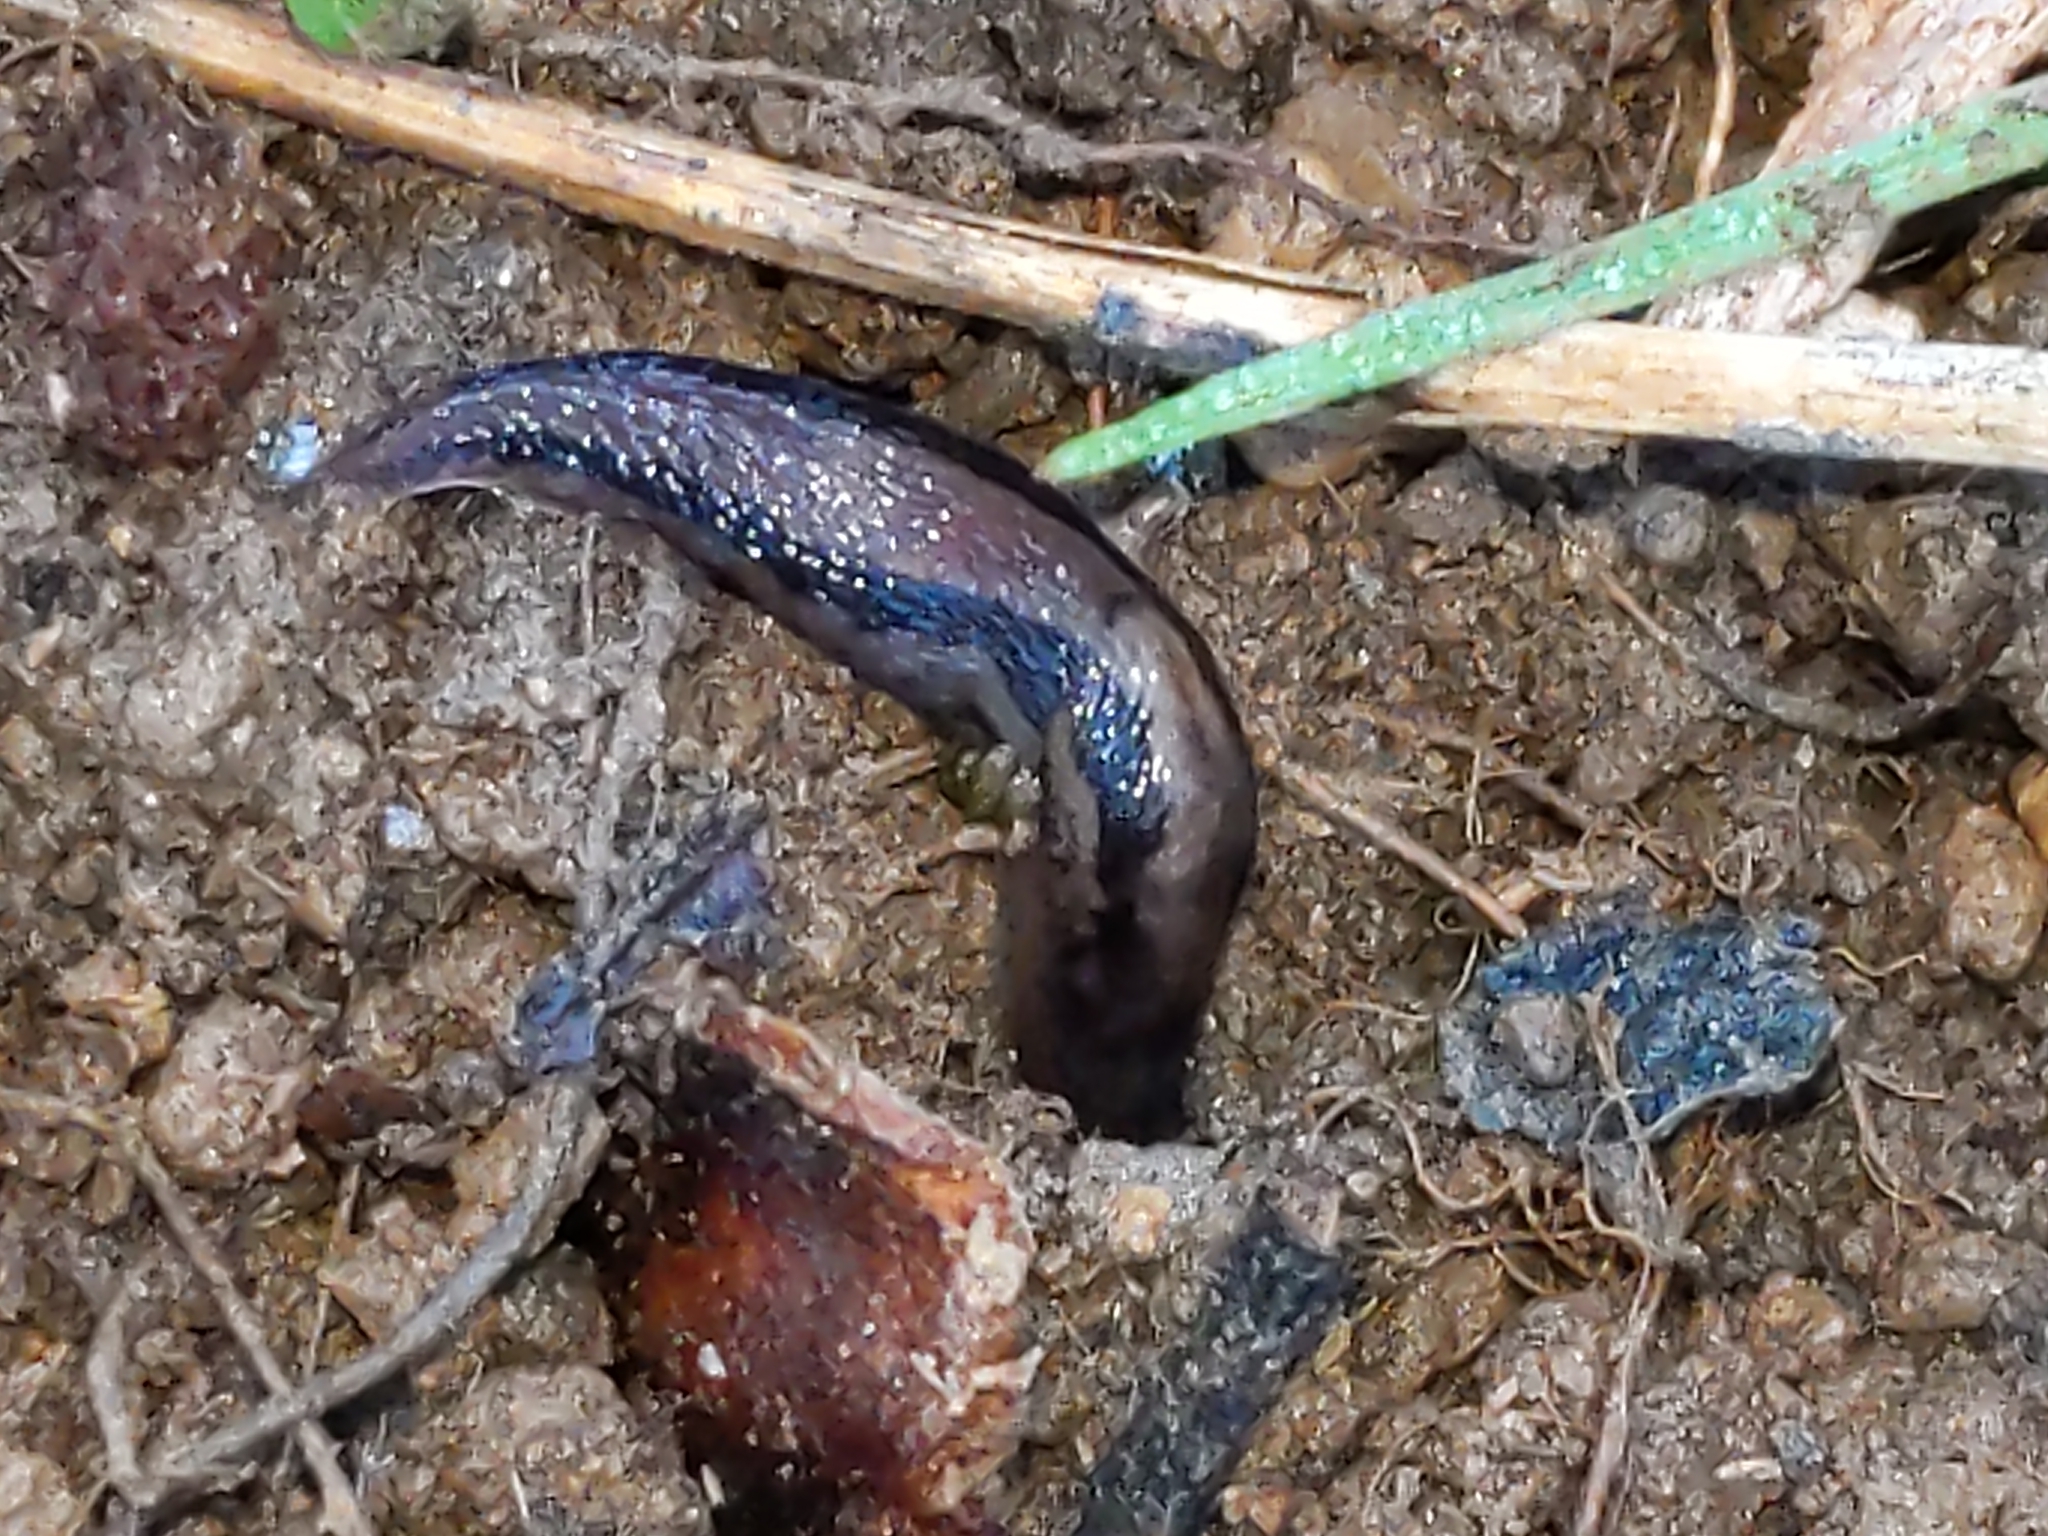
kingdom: Animalia
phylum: Mollusca
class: Gastropoda
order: Stylommatophora
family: Limacidae
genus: Limax
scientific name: Limax maximus
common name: Great grey slug
